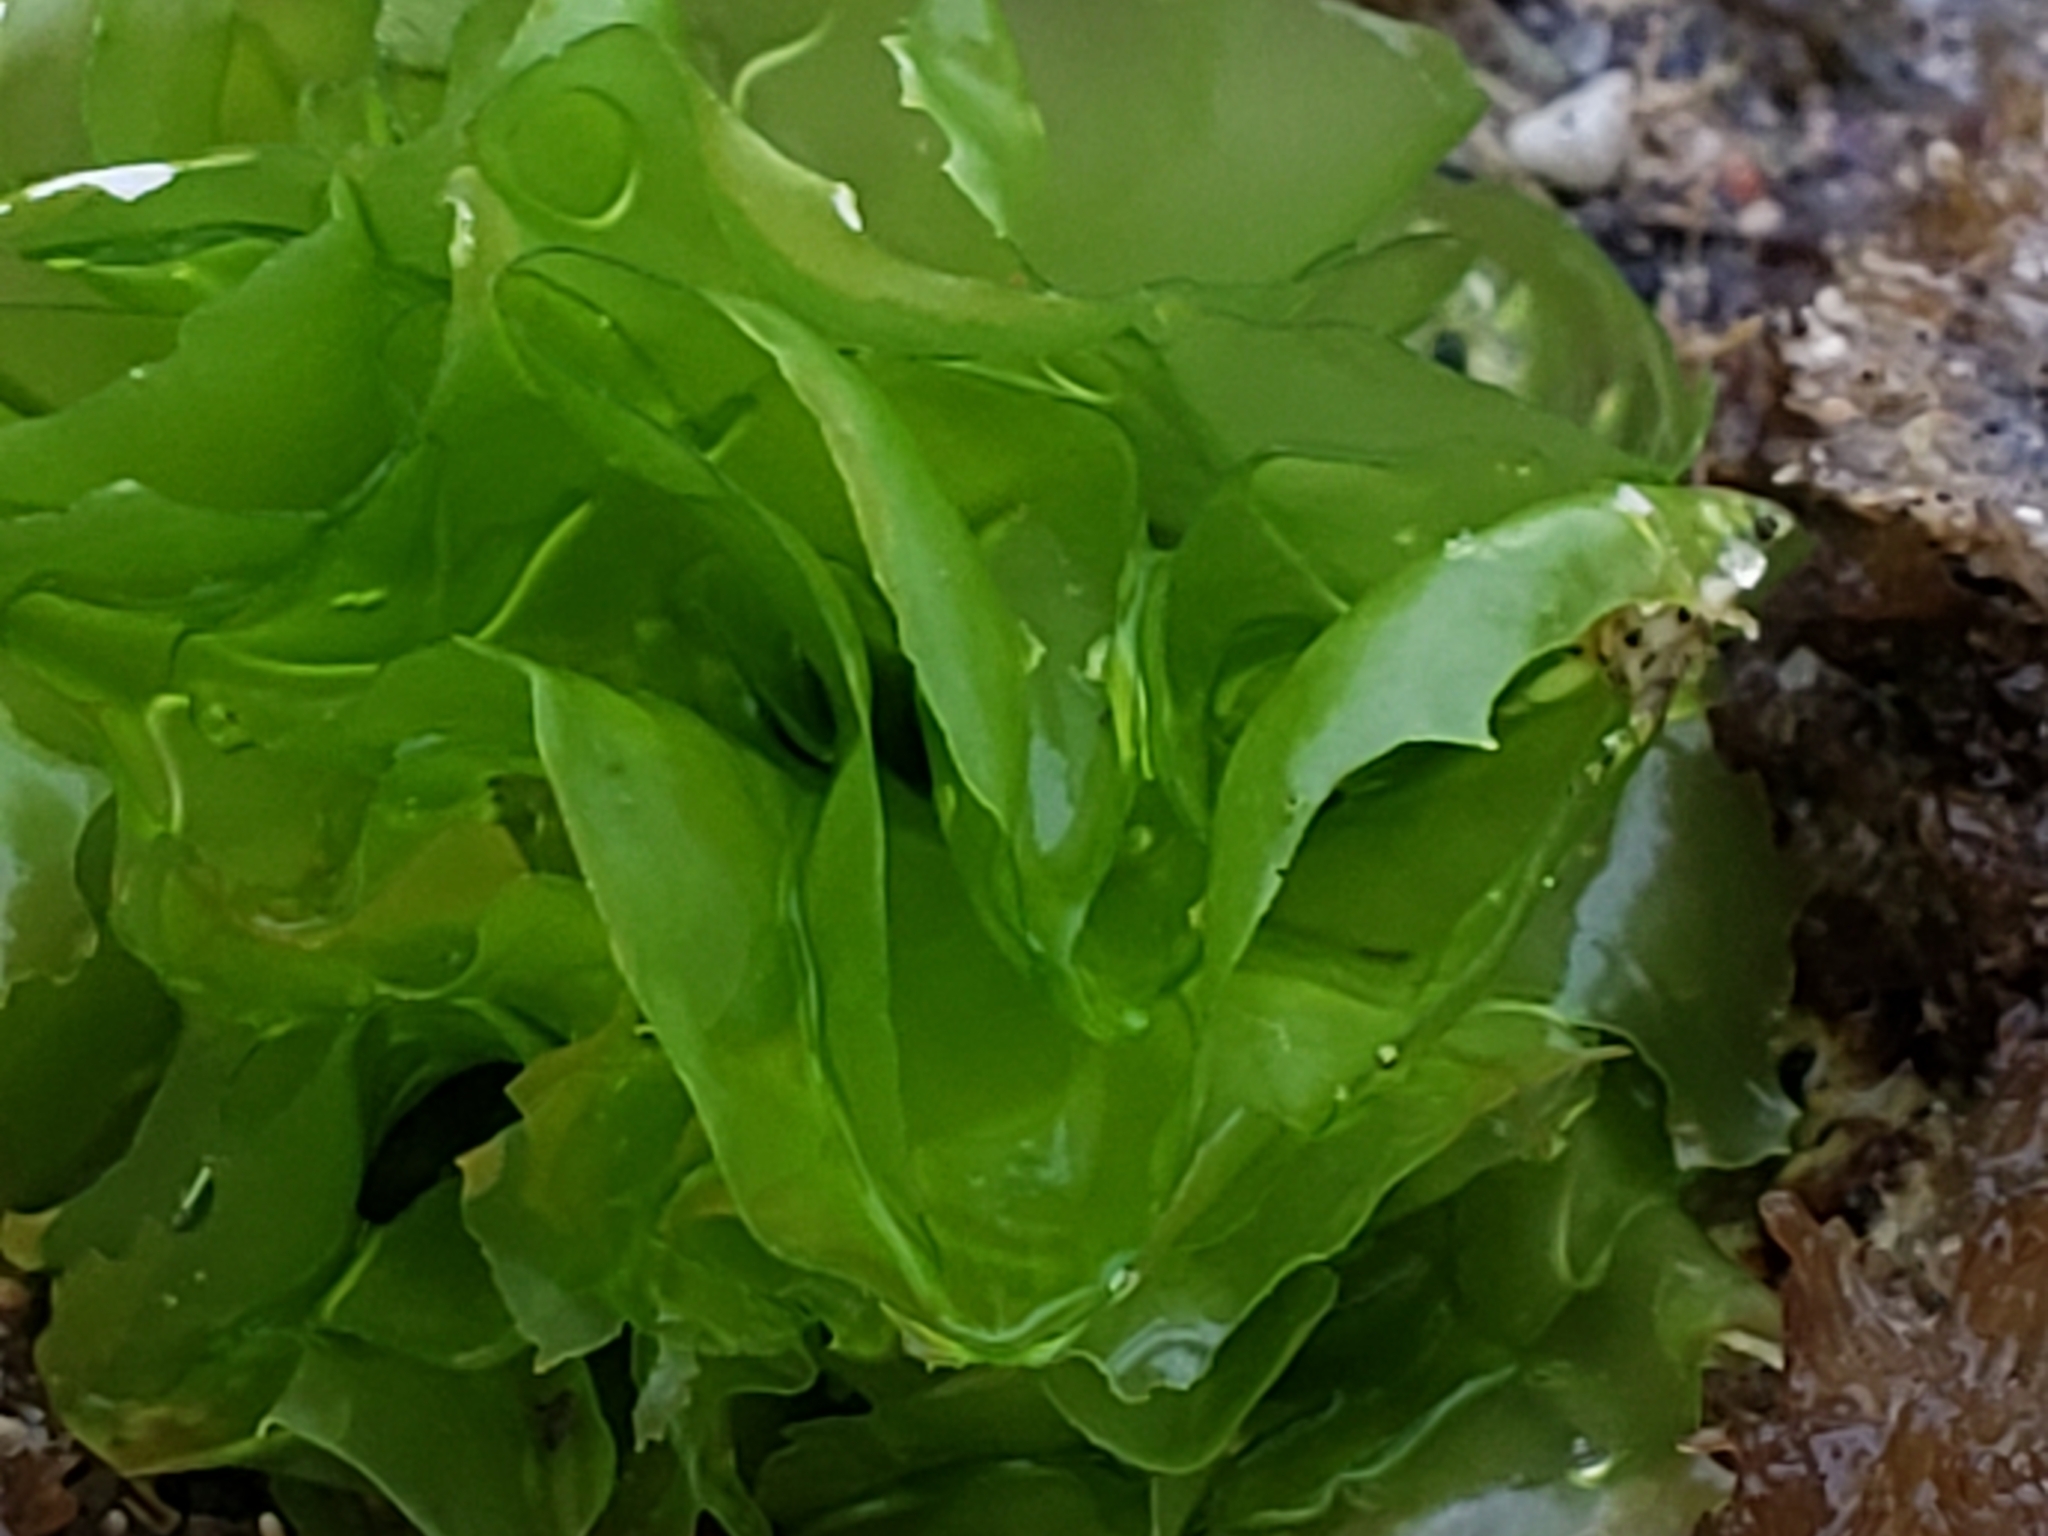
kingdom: Plantae
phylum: Chlorophyta
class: Ulvophyceae
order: Ulvales
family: Ulvaceae
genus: Ulva
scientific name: Ulva lactuca
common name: Sea lettuce
